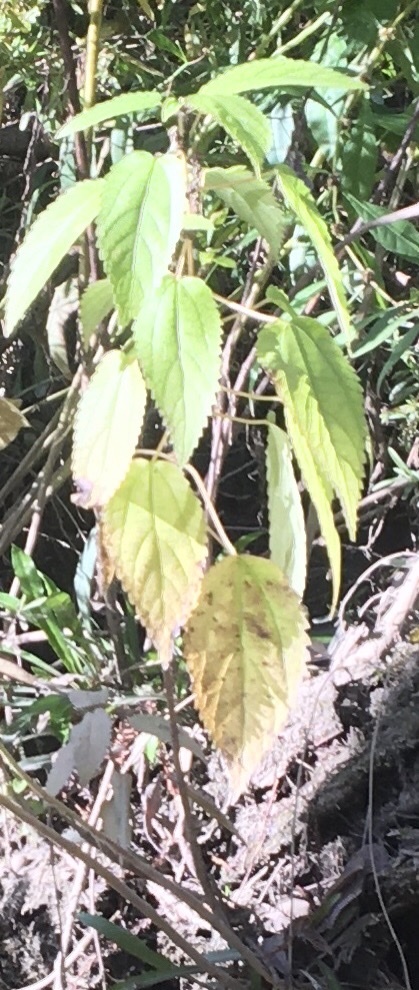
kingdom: Plantae
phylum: Tracheophyta
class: Magnoliopsida
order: Rosales
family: Urticaceae
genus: Boehmeria
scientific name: Boehmeria cylindrica
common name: Bog-hemp
